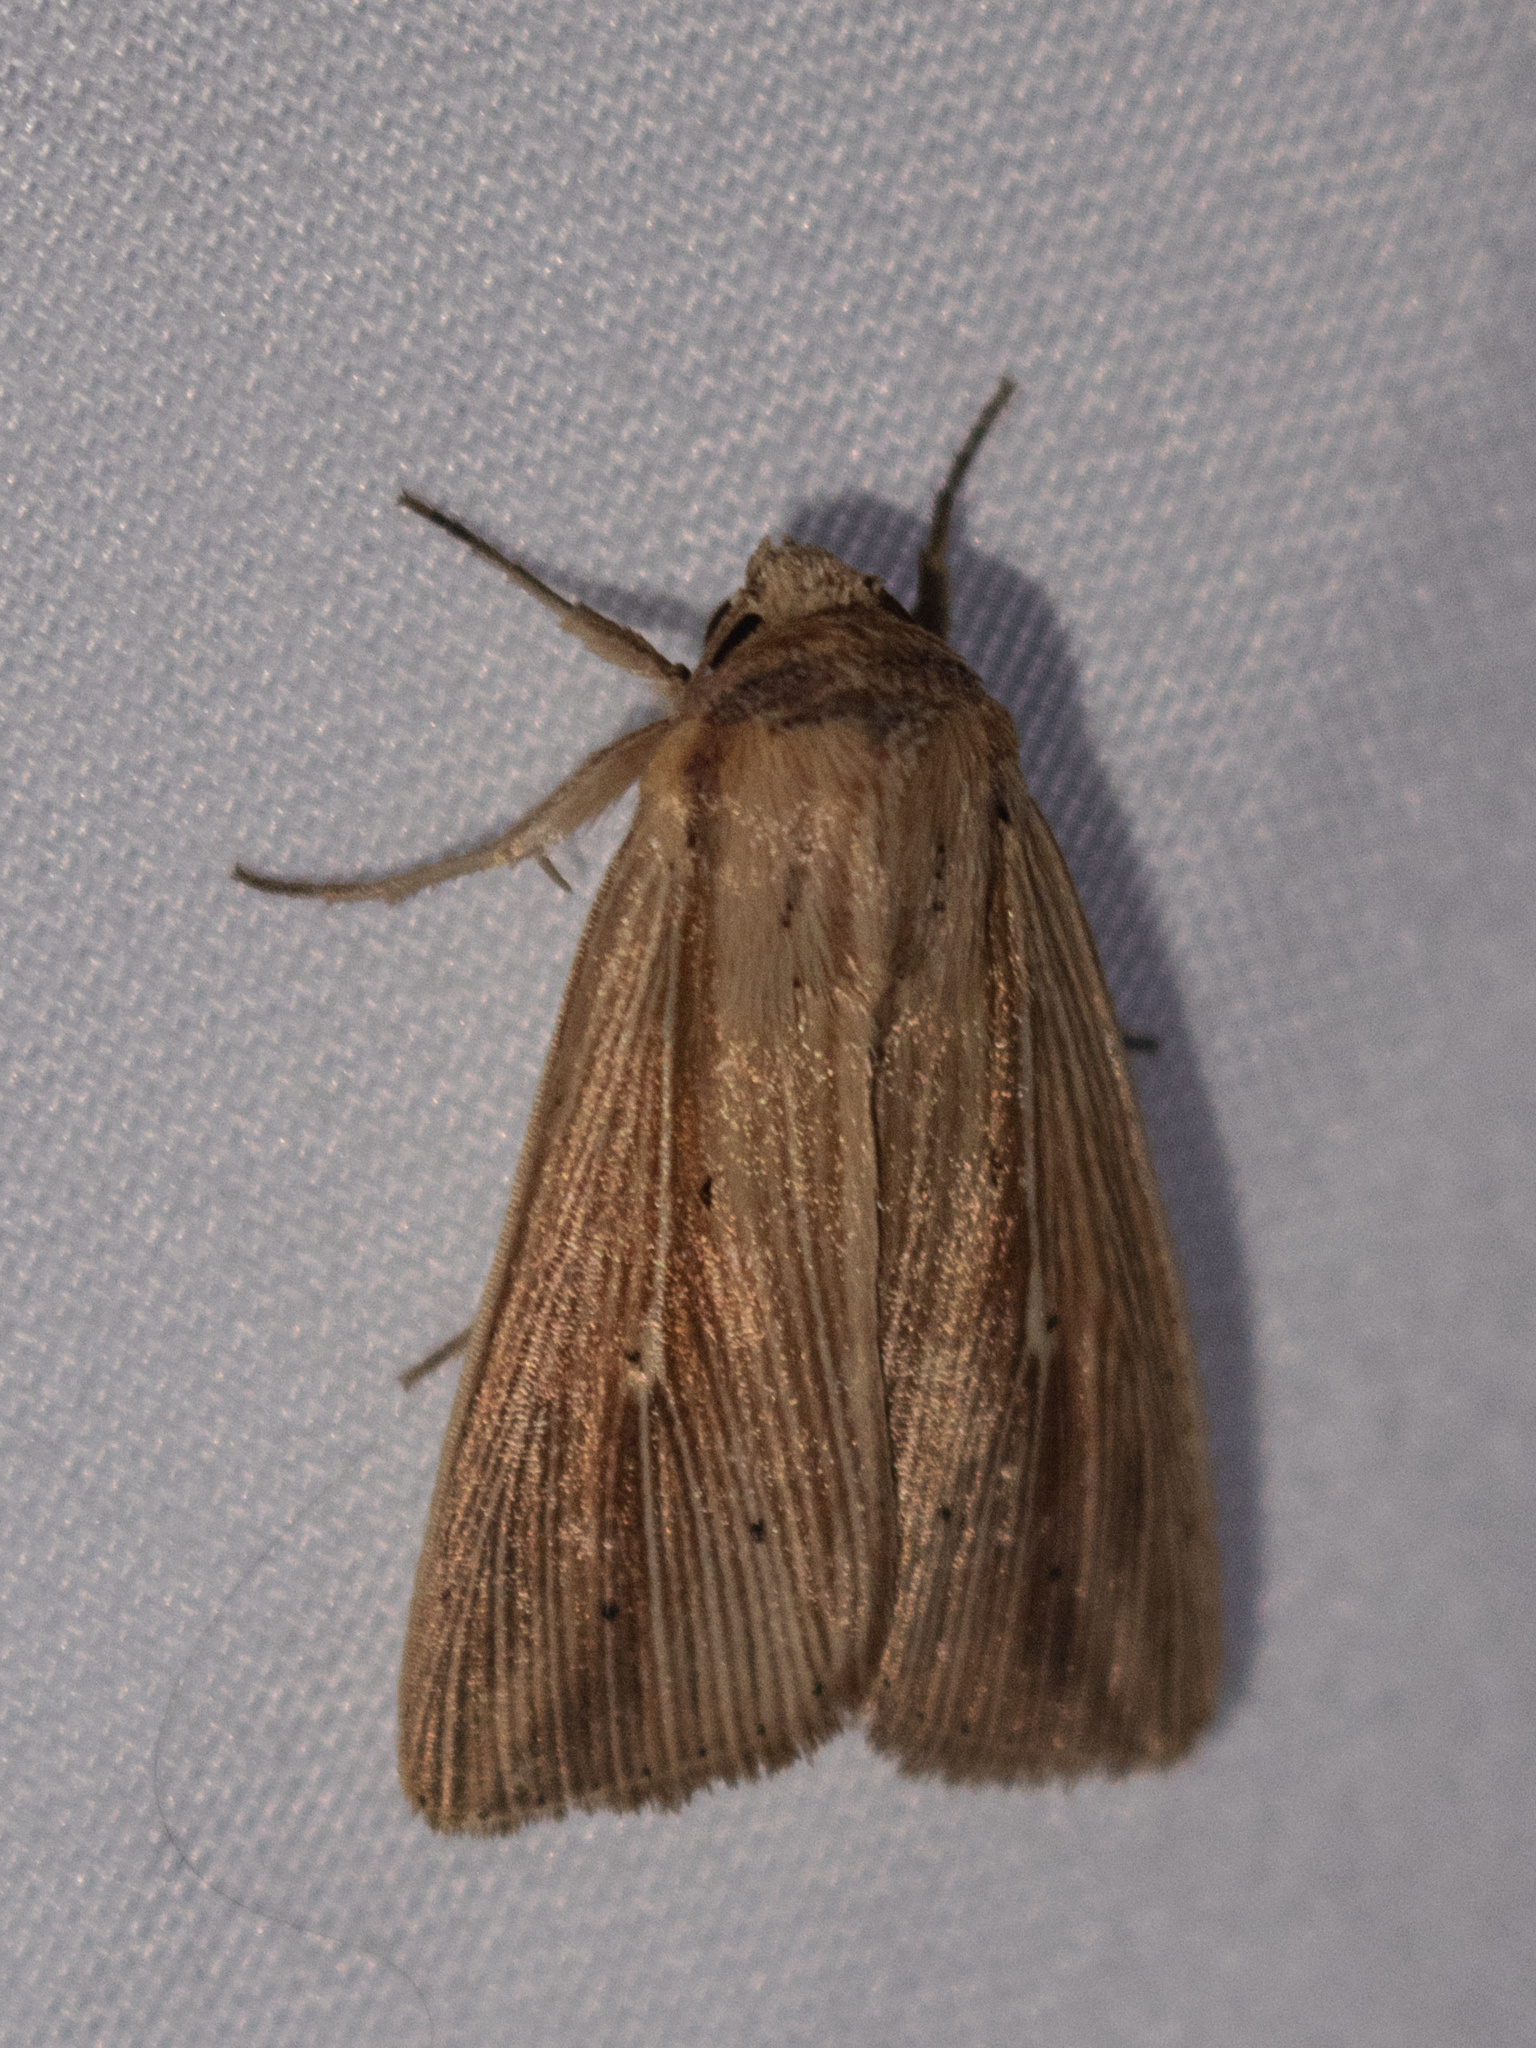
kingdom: Animalia
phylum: Arthropoda
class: Insecta
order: Lepidoptera
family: Noctuidae
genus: Leucania
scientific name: Leucania adjuta
